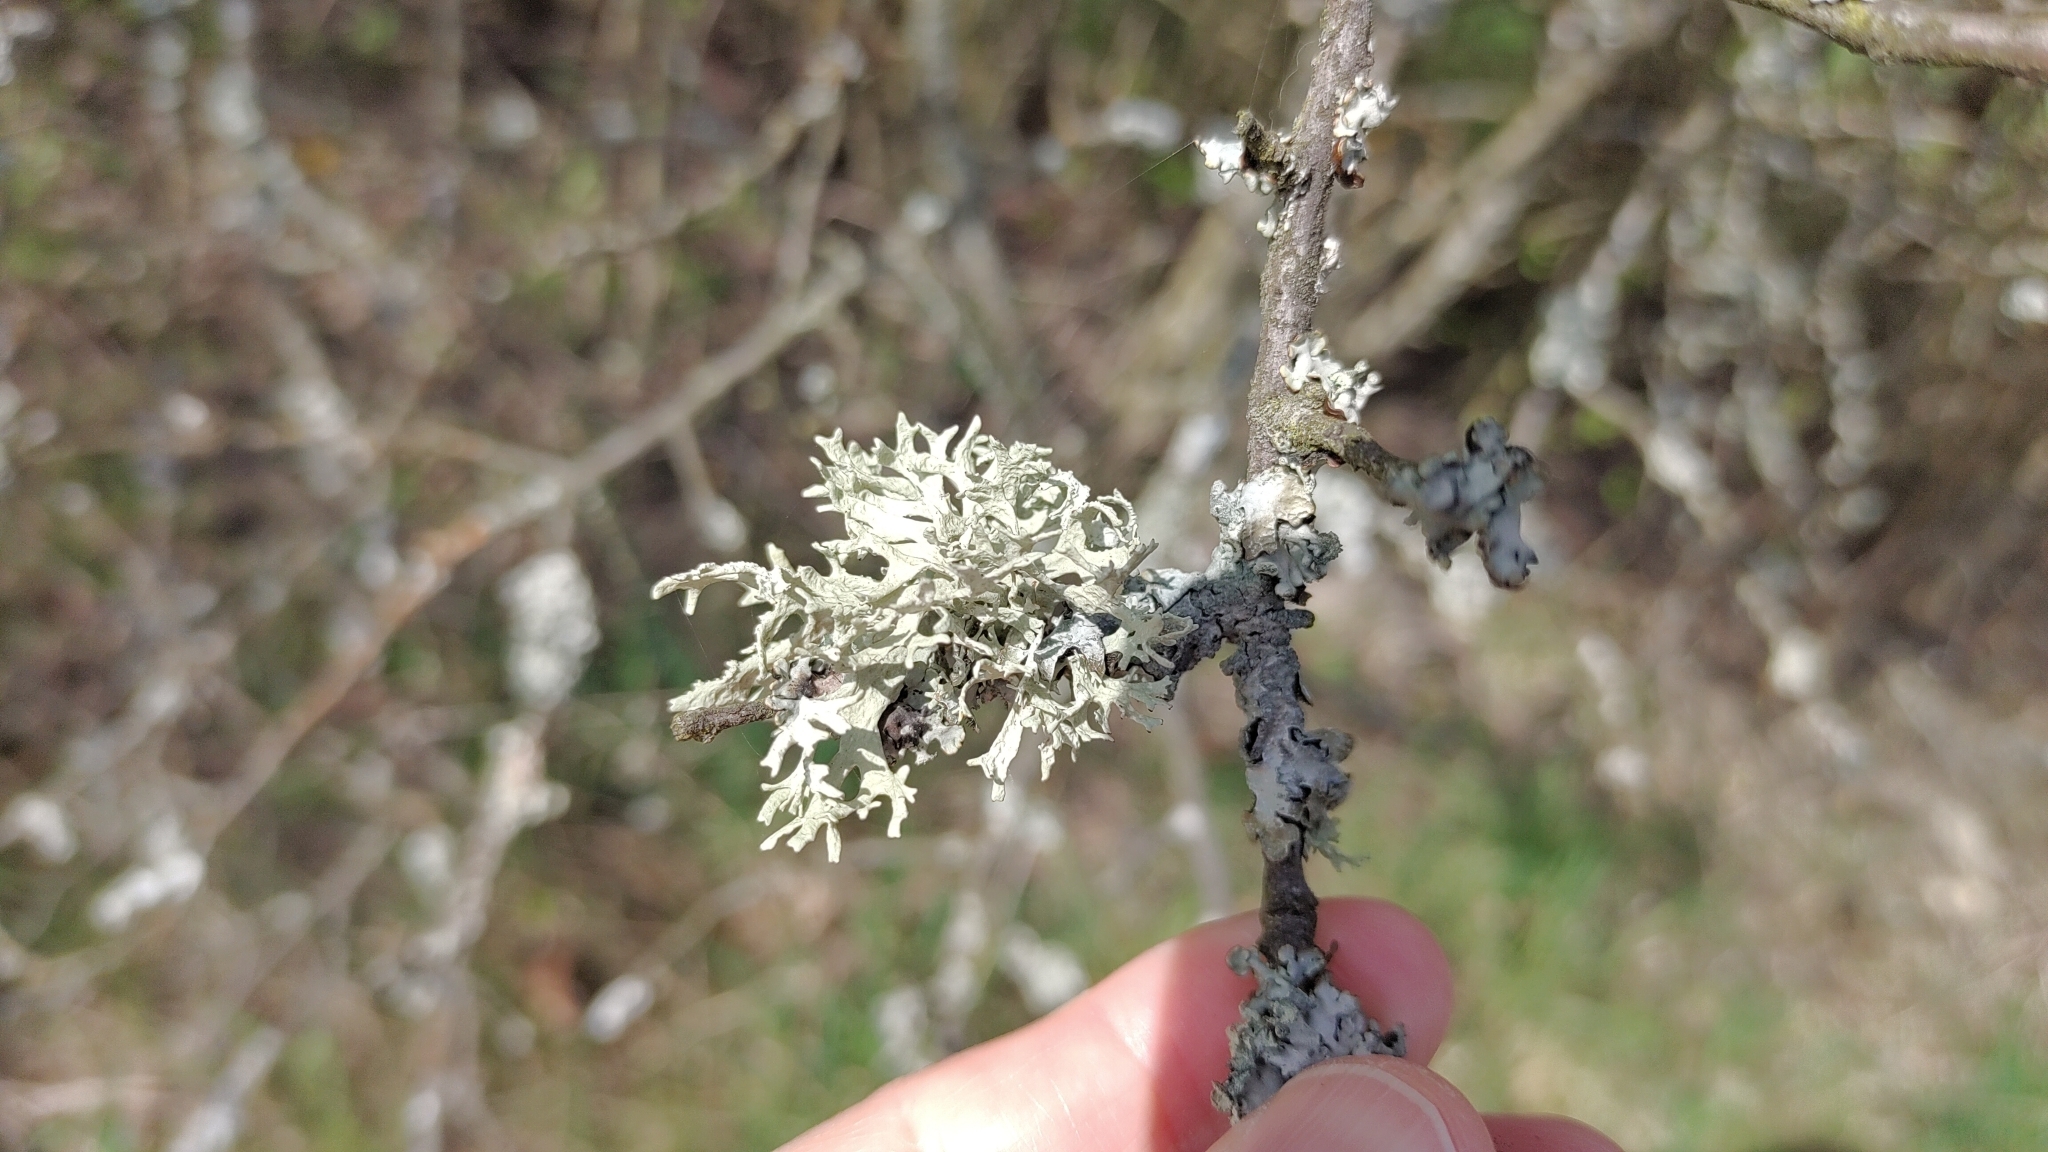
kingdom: Fungi
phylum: Ascomycota
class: Lecanoromycetes
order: Lecanorales
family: Parmeliaceae
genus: Evernia
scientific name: Evernia prunastri
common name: Oak moss
